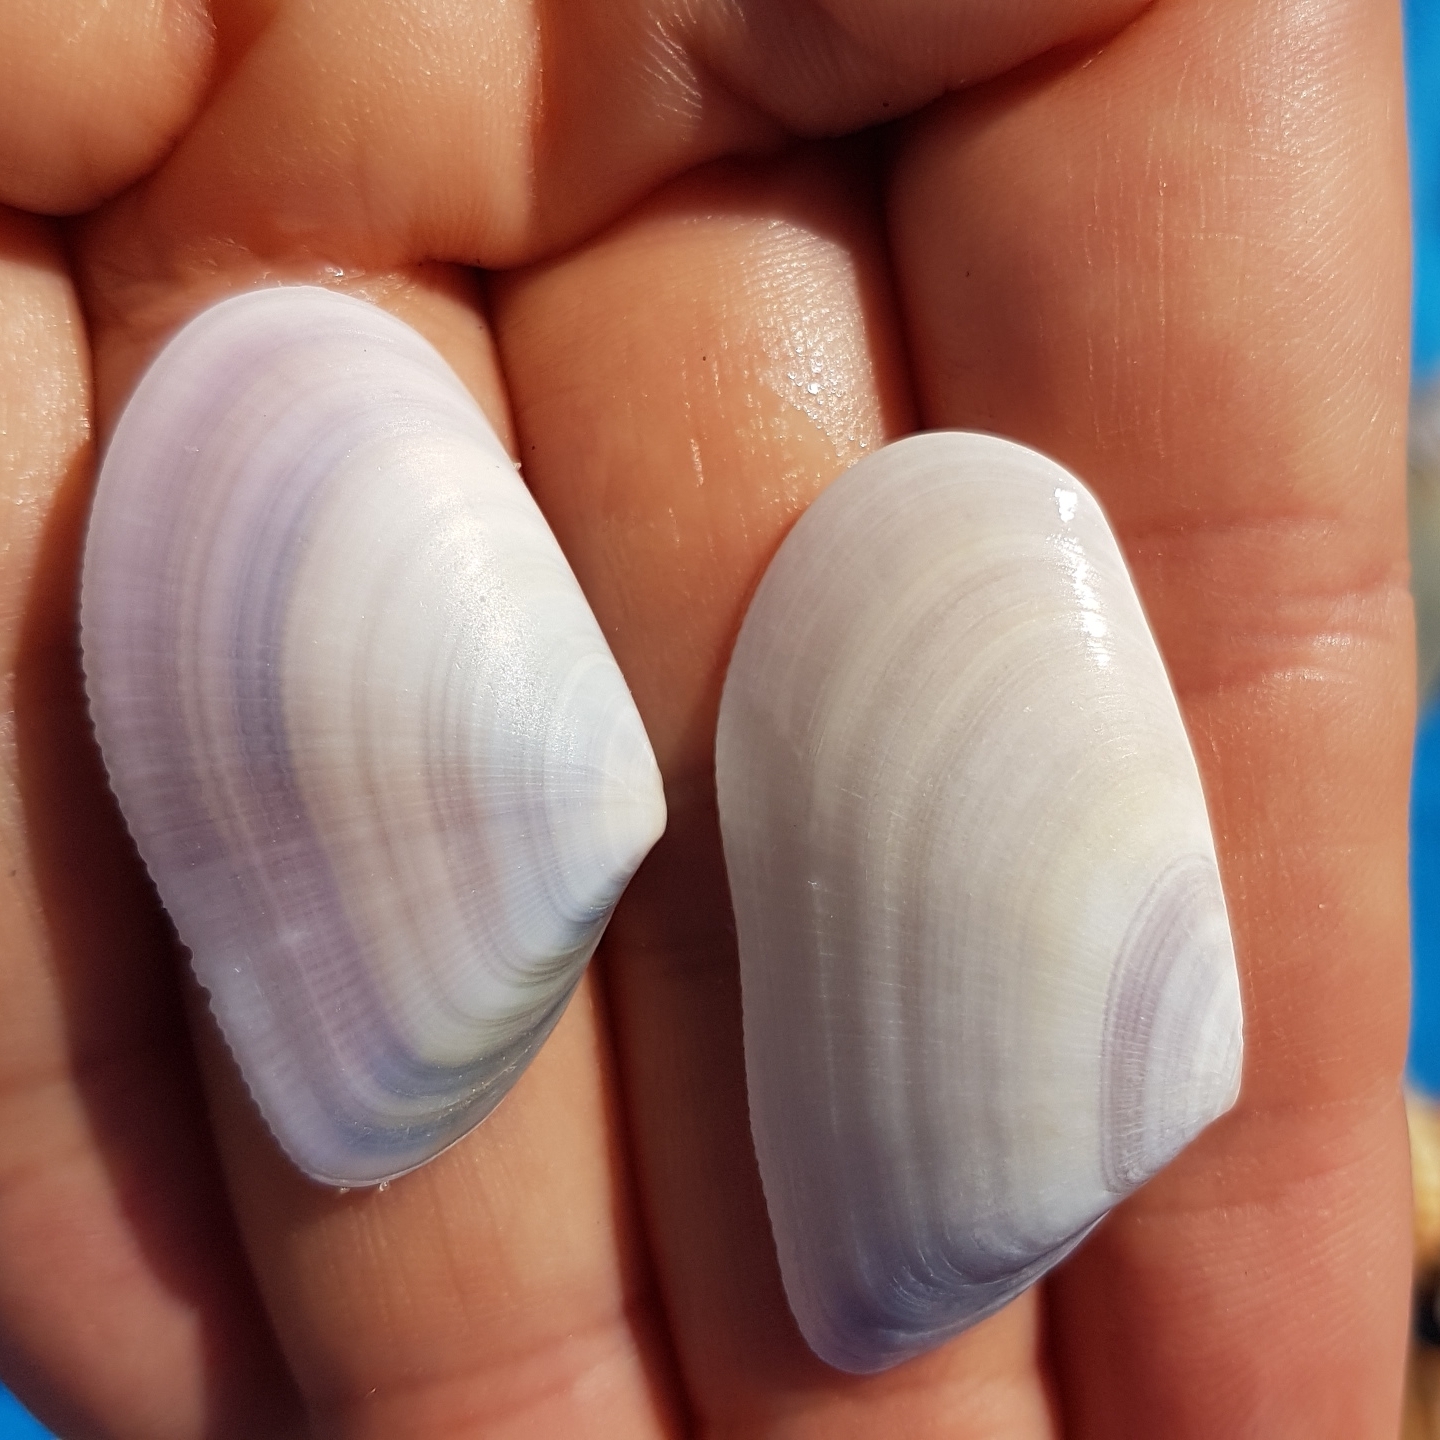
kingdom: Animalia
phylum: Mollusca
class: Bivalvia
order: Cardiida
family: Donacidae
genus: Donax
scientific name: Donax trunculus
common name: Truncate donax
